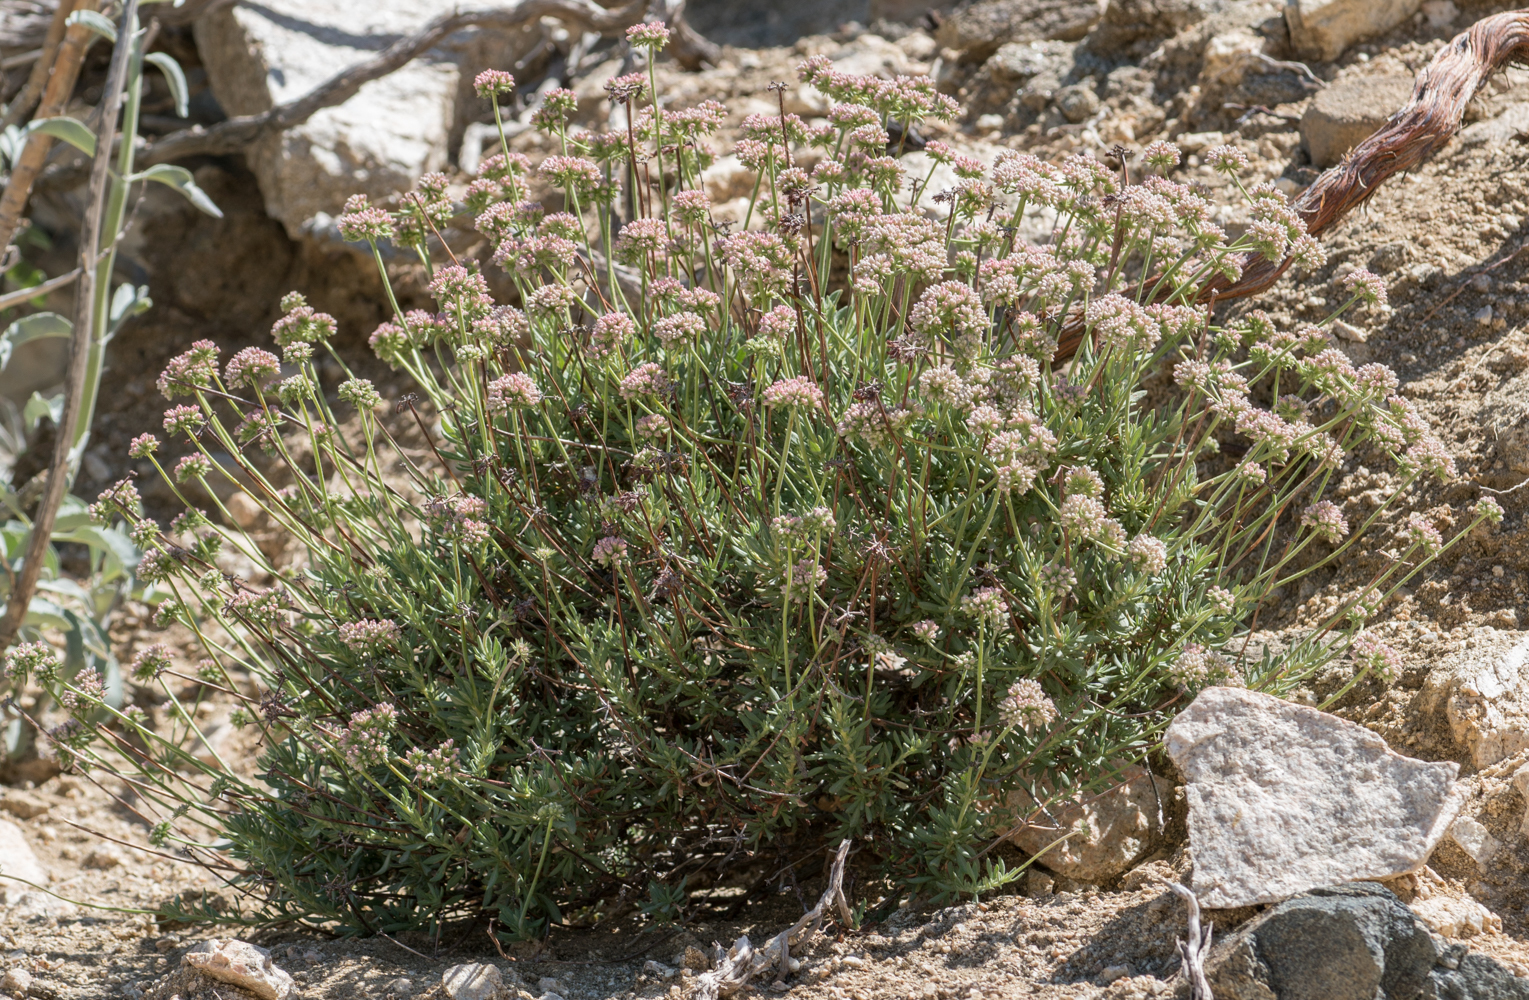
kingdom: Plantae
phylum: Tracheophyta
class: Magnoliopsida
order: Caryophyllales
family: Polygonaceae
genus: Eriogonum
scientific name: Eriogonum fasciculatum
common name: California wild buckwheat
